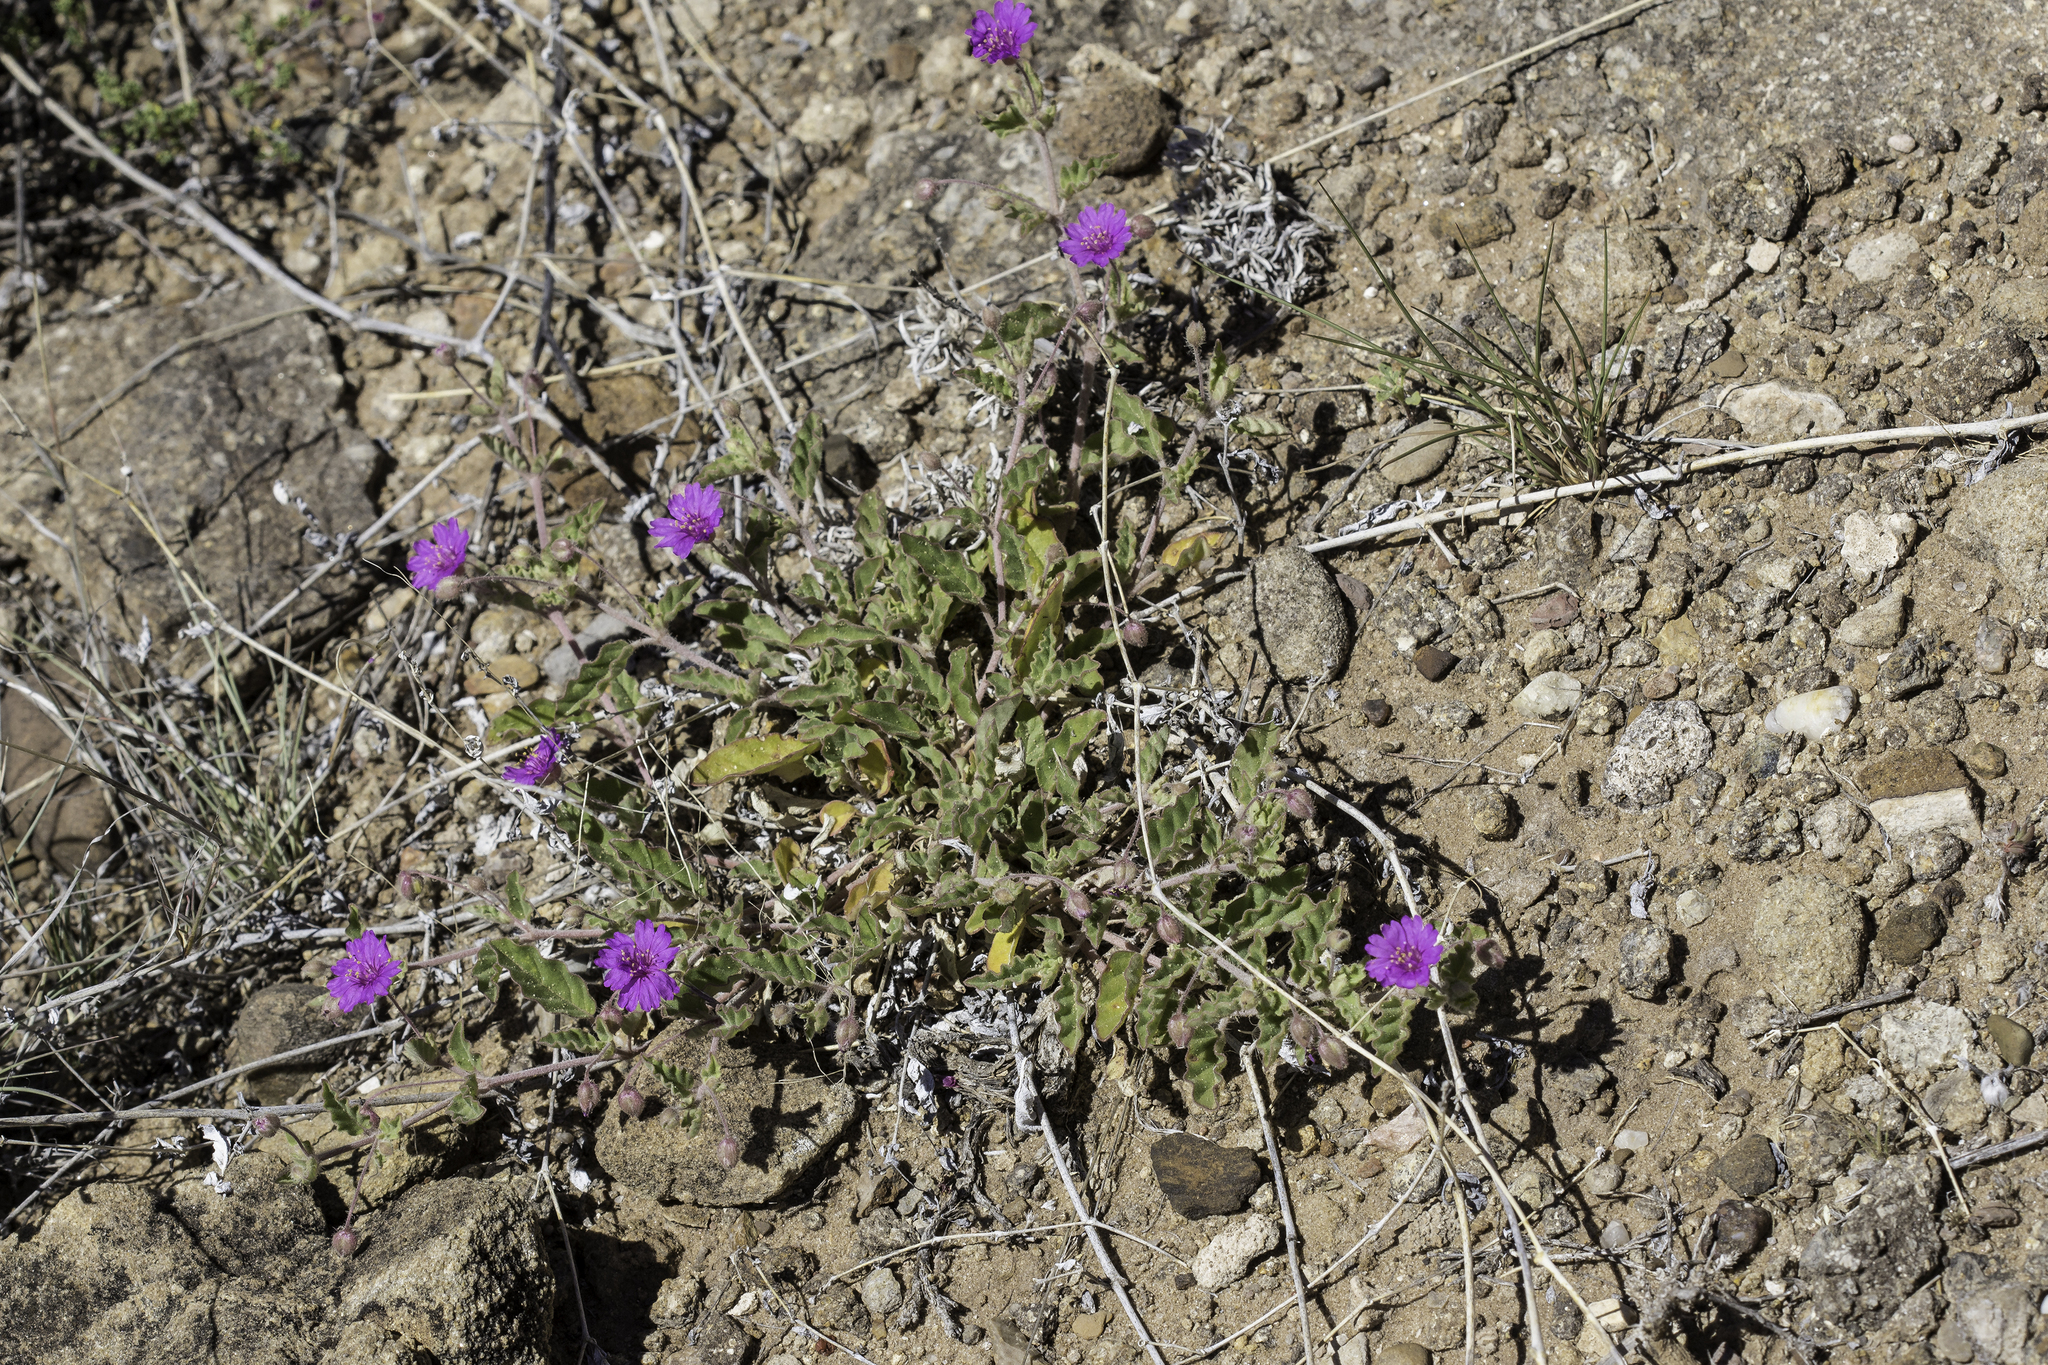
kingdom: Plantae
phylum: Tracheophyta
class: Magnoliopsida
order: Caryophyllales
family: Nyctaginaceae
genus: Allionia
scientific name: Allionia incarnata
